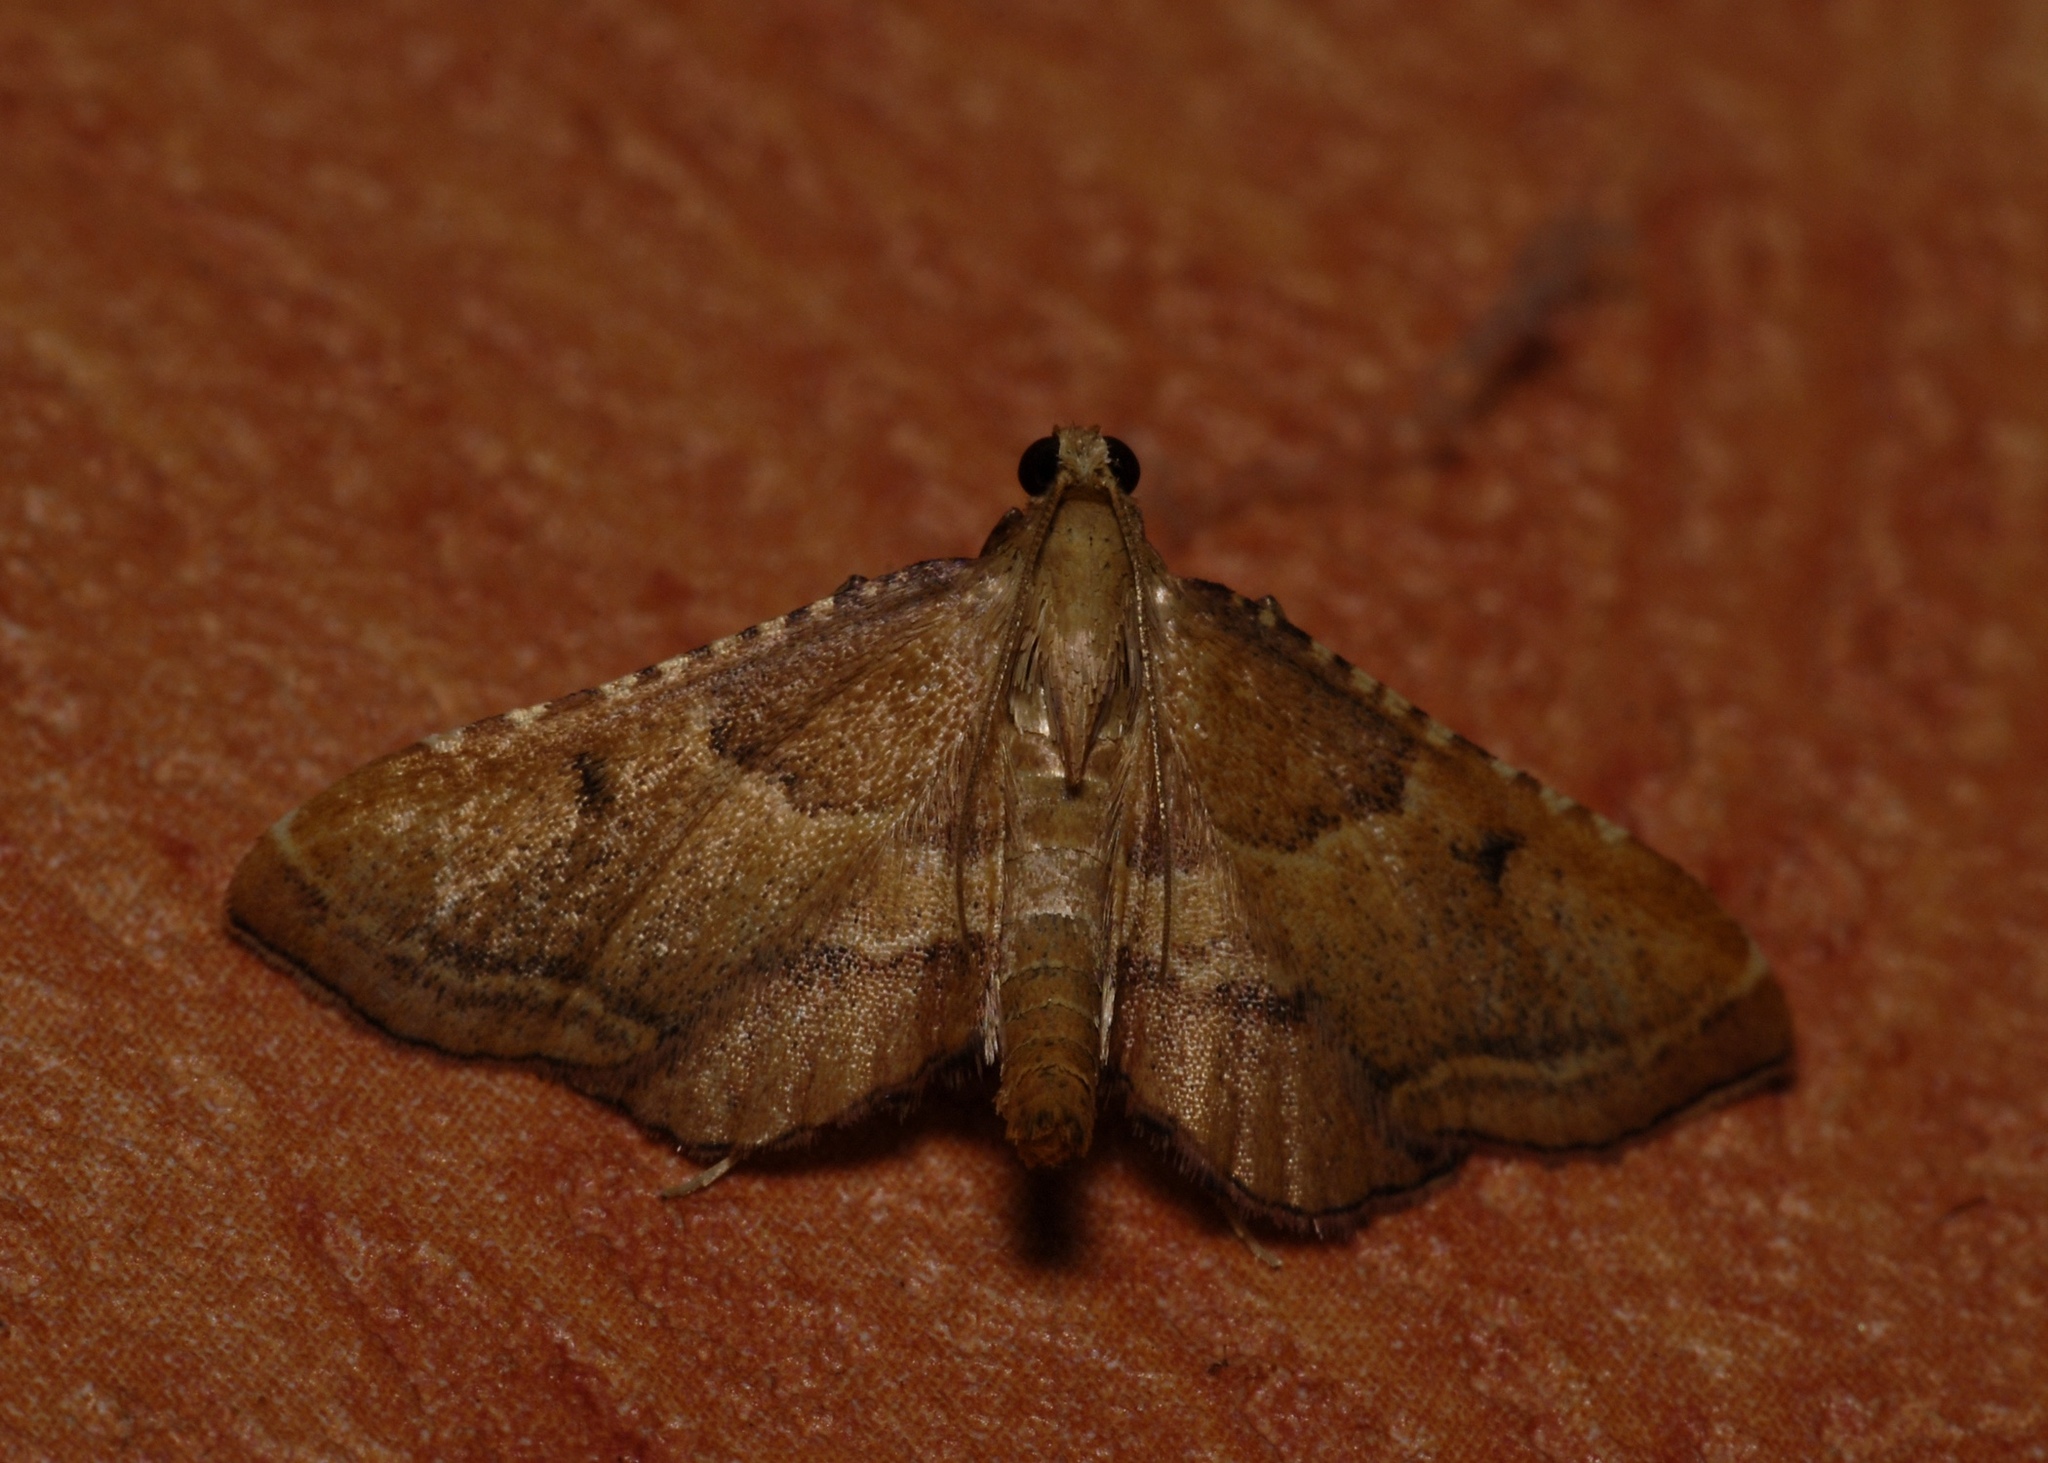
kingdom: Animalia
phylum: Arthropoda
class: Insecta
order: Lepidoptera
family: Pyralidae
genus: Endotricha
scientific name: Endotricha flammealis
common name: Rosy tabby
